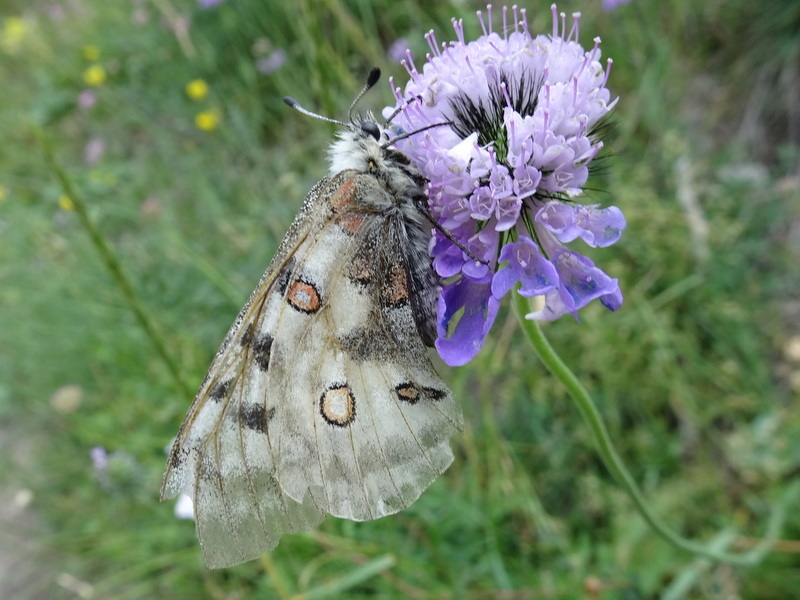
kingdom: Animalia
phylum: Arthropoda
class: Insecta
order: Lepidoptera
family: Papilionidae
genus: Parnassius
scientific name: Parnassius apollo
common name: Apollo
